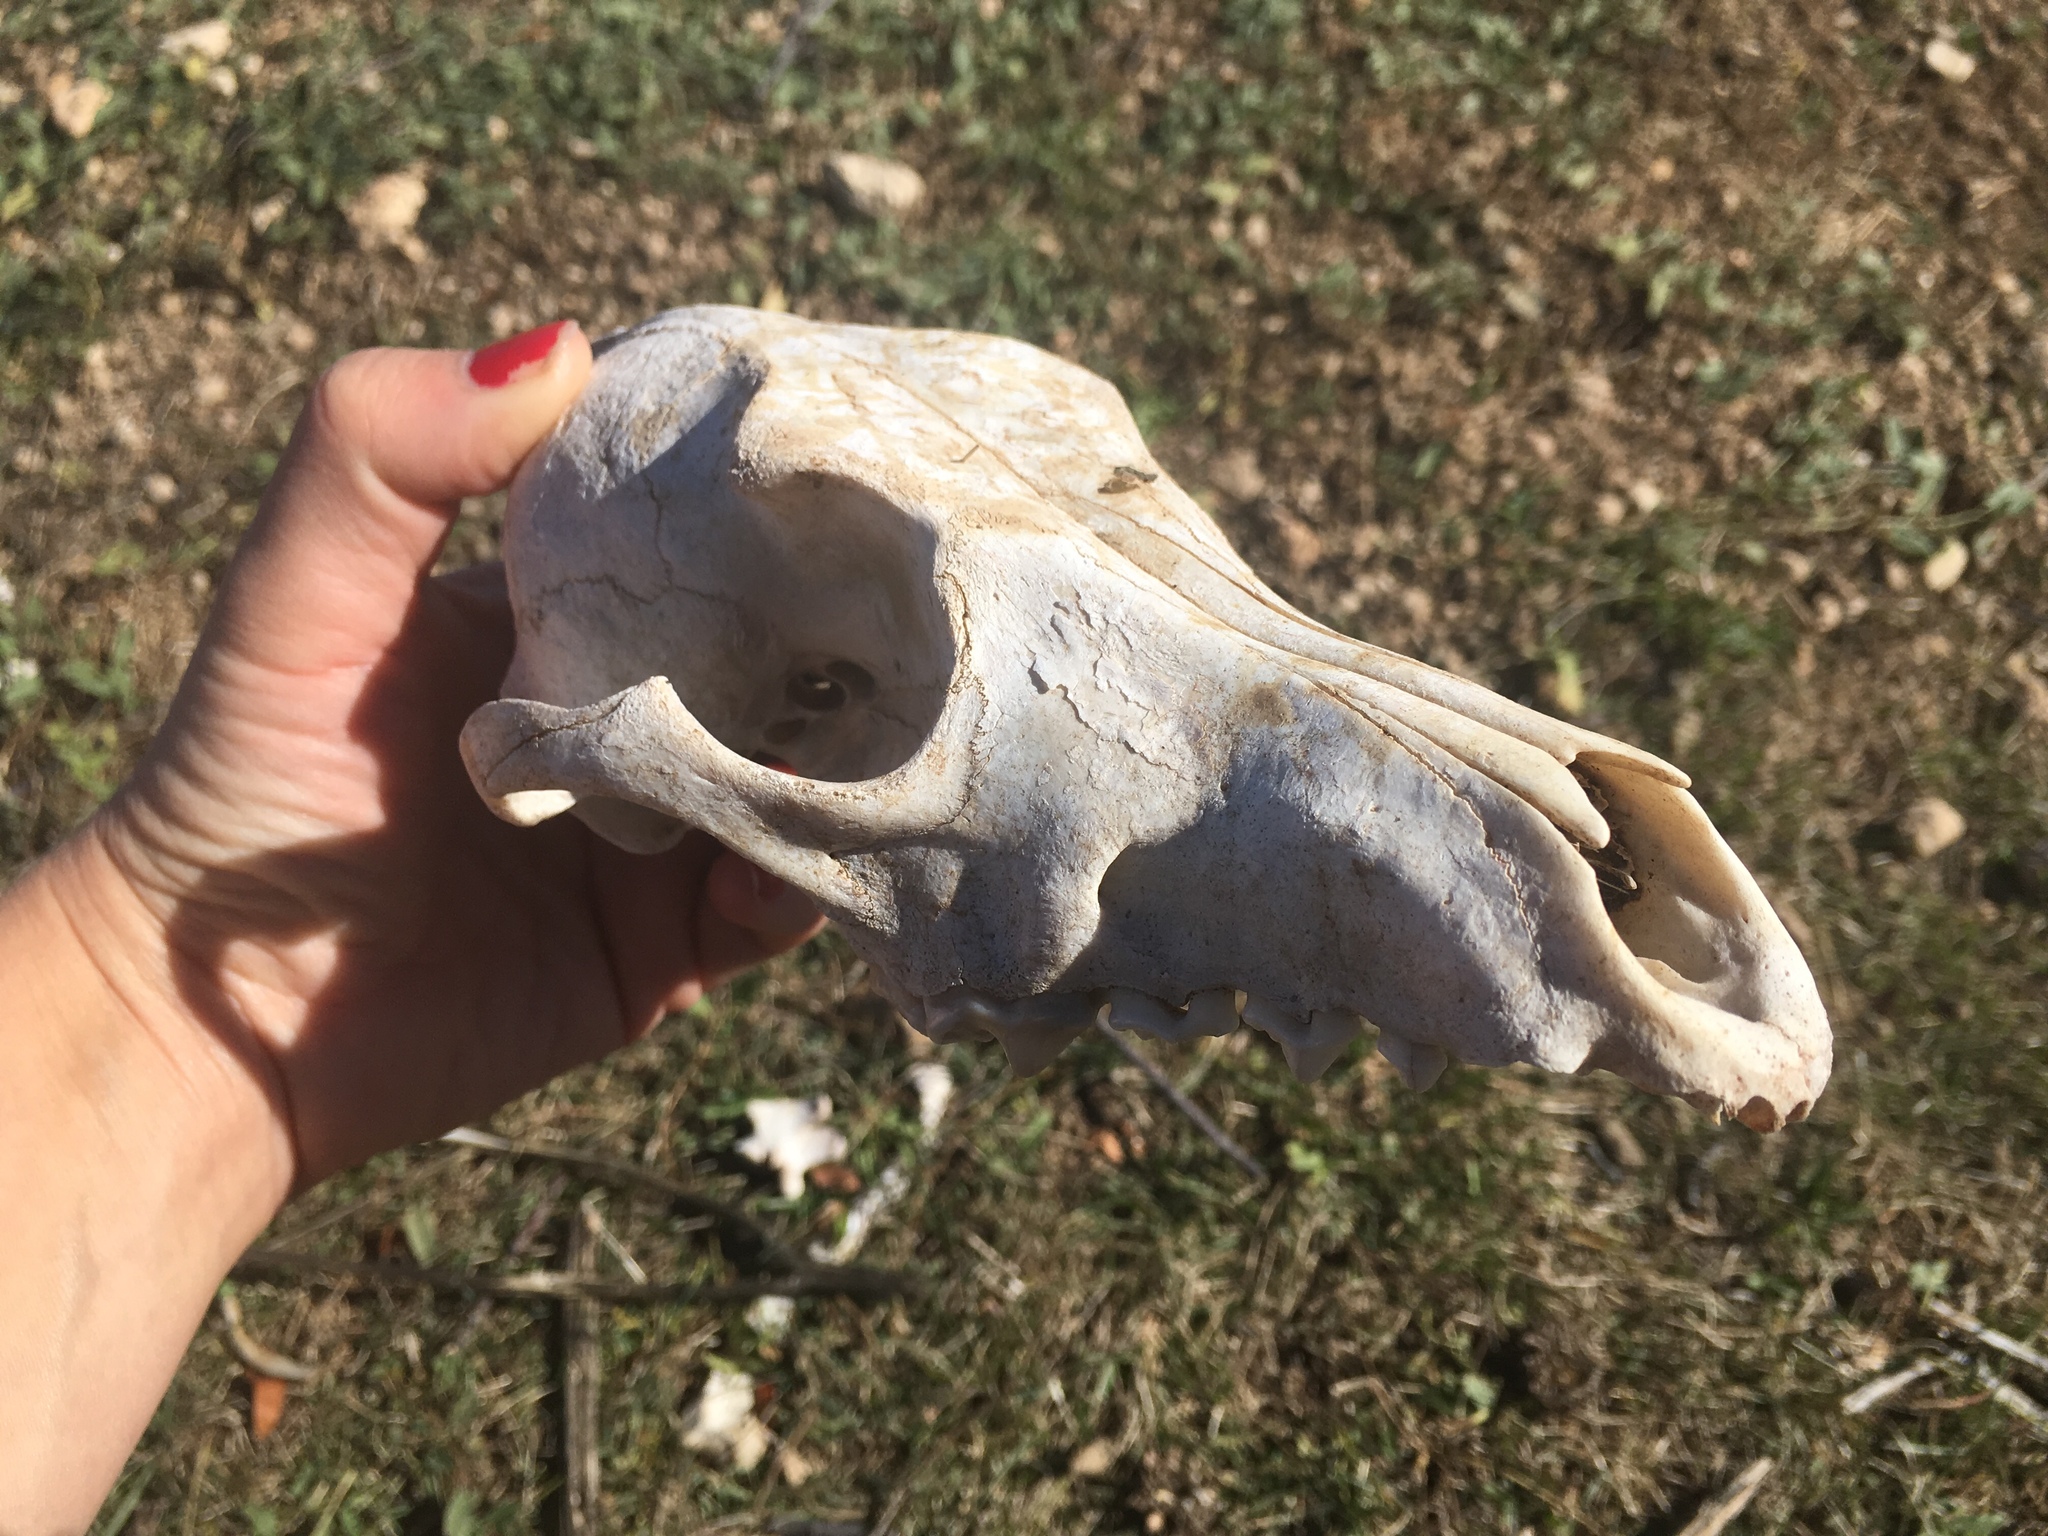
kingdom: Animalia
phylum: Chordata
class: Mammalia
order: Carnivora
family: Canidae
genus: Canis
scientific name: Canis latrans
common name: Coyote
